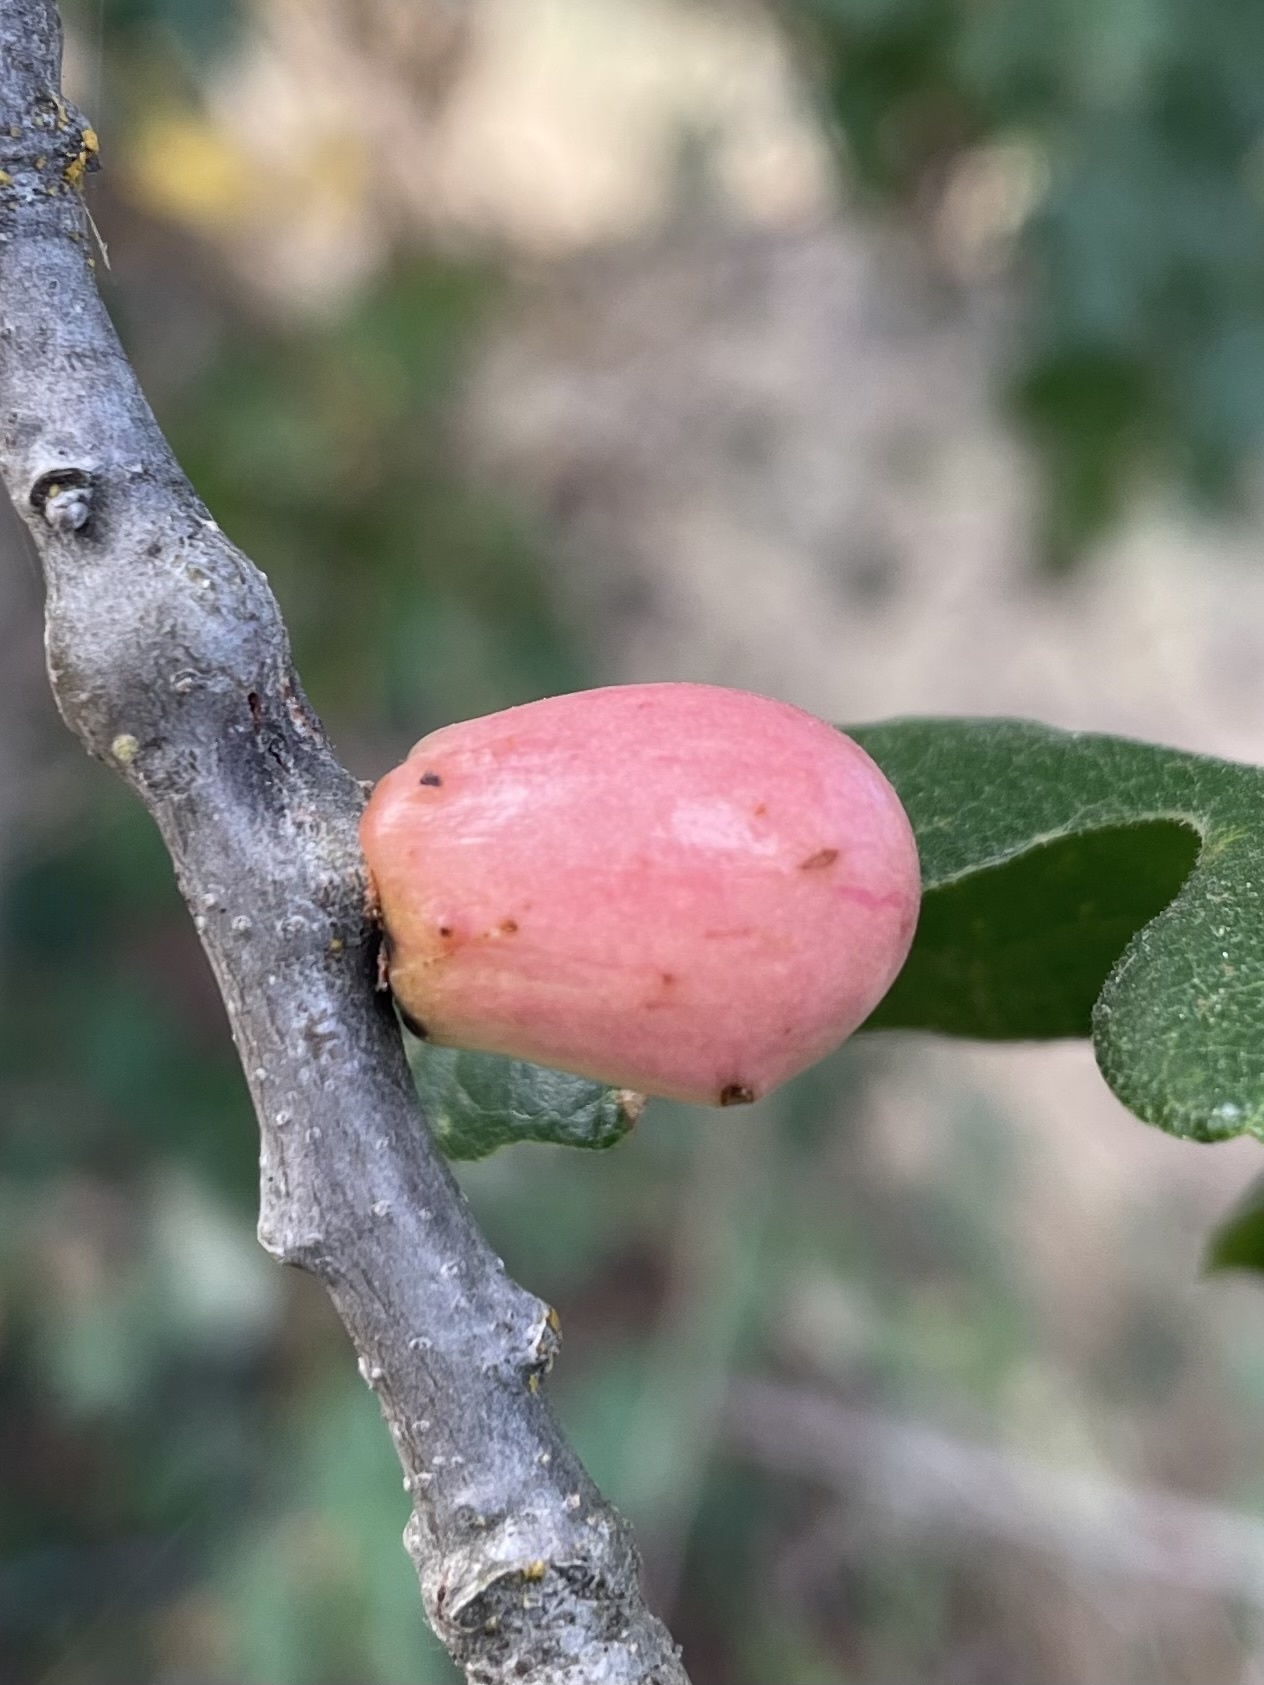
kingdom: Animalia
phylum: Arthropoda
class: Insecta
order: Hymenoptera
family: Cynipidae
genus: Andricus
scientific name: Andricus quercuscalifornicus
